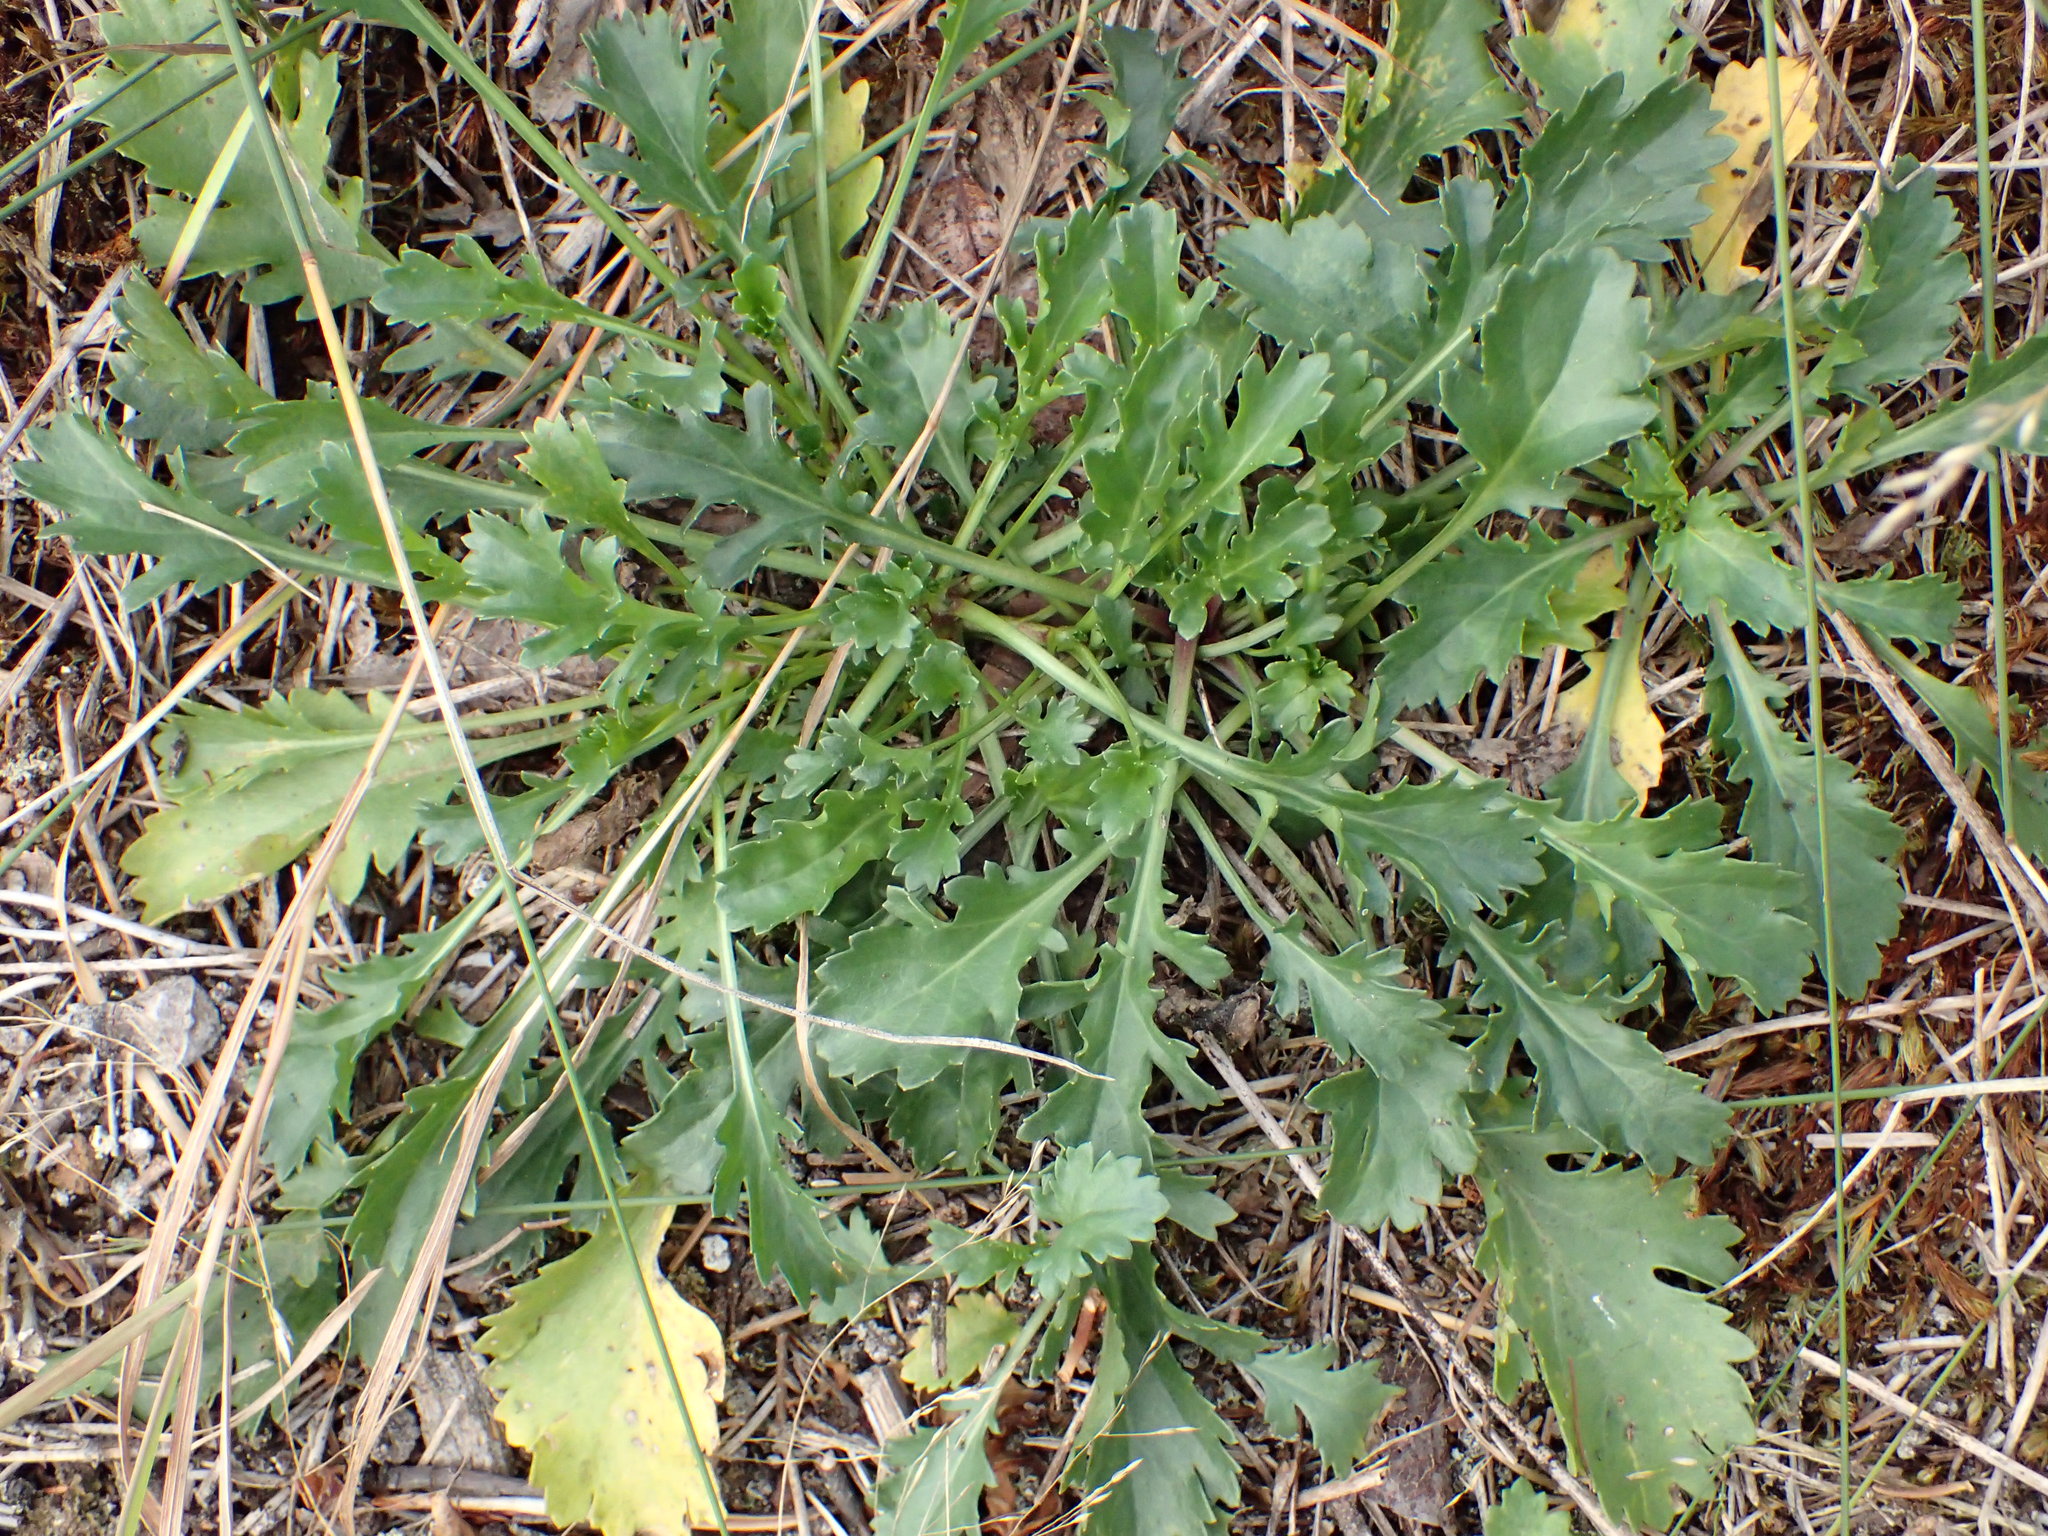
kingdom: Plantae
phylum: Tracheophyta
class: Magnoliopsida
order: Asterales
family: Asteraceae
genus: Leucanthemum
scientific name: Leucanthemum vulgare
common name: Oxeye daisy
